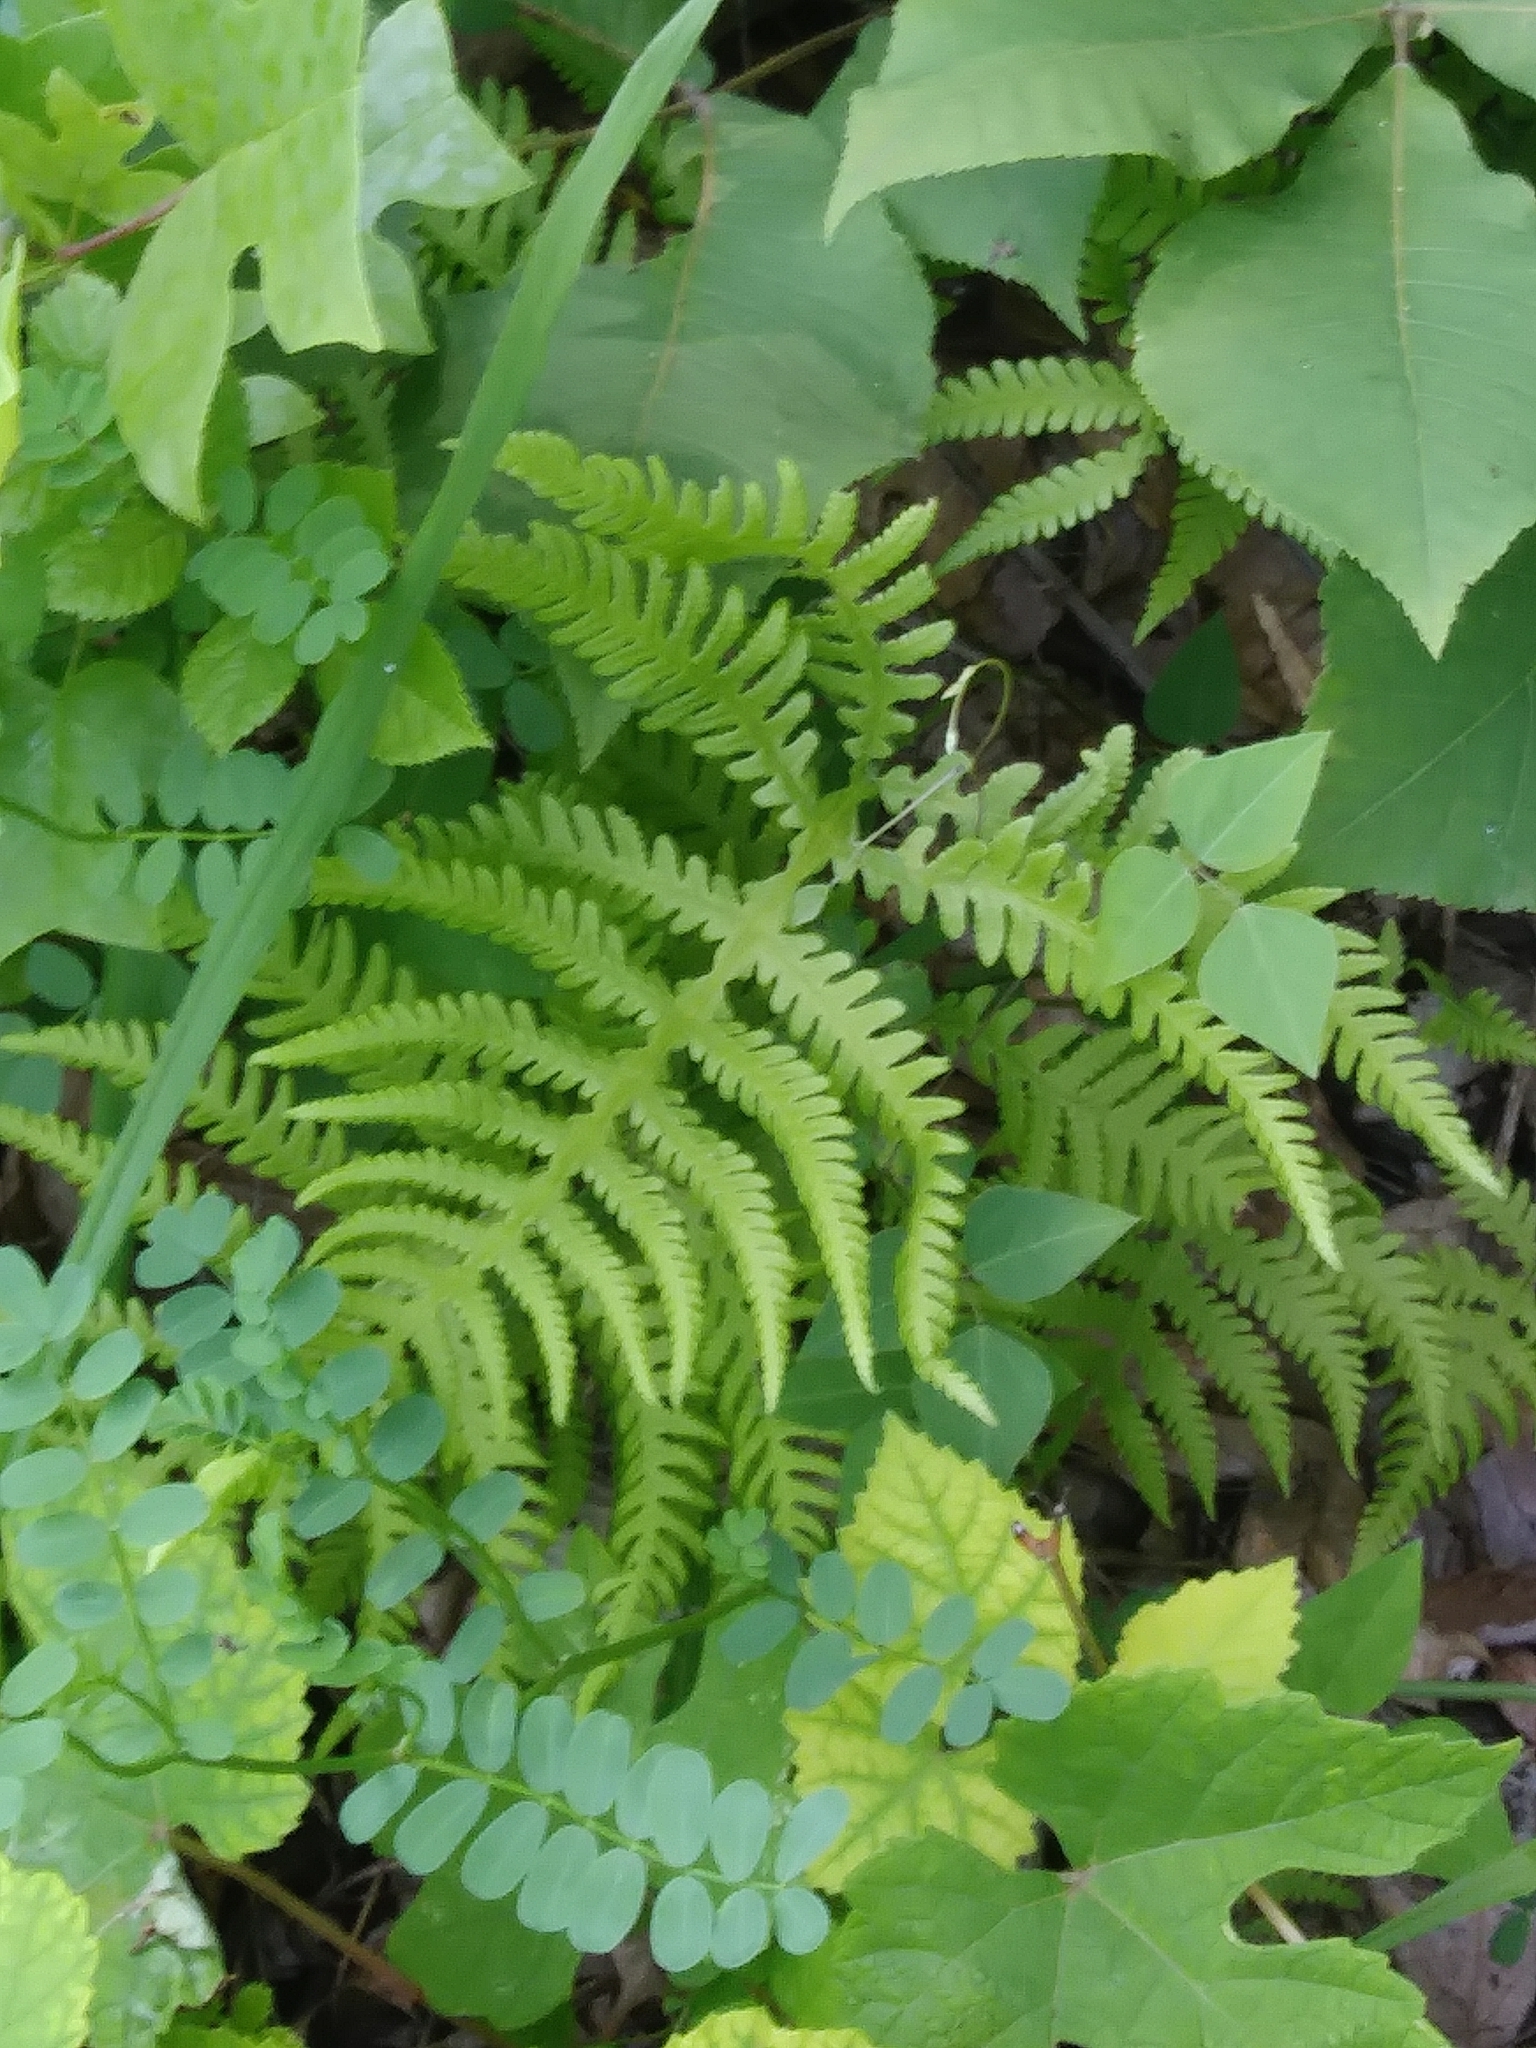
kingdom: Plantae
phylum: Tracheophyta
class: Polypodiopsida
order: Polypodiales
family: Thelypteridaceae
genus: Phegopteris
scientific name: Phegopteris hexagonoptera
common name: Broad beech fern
